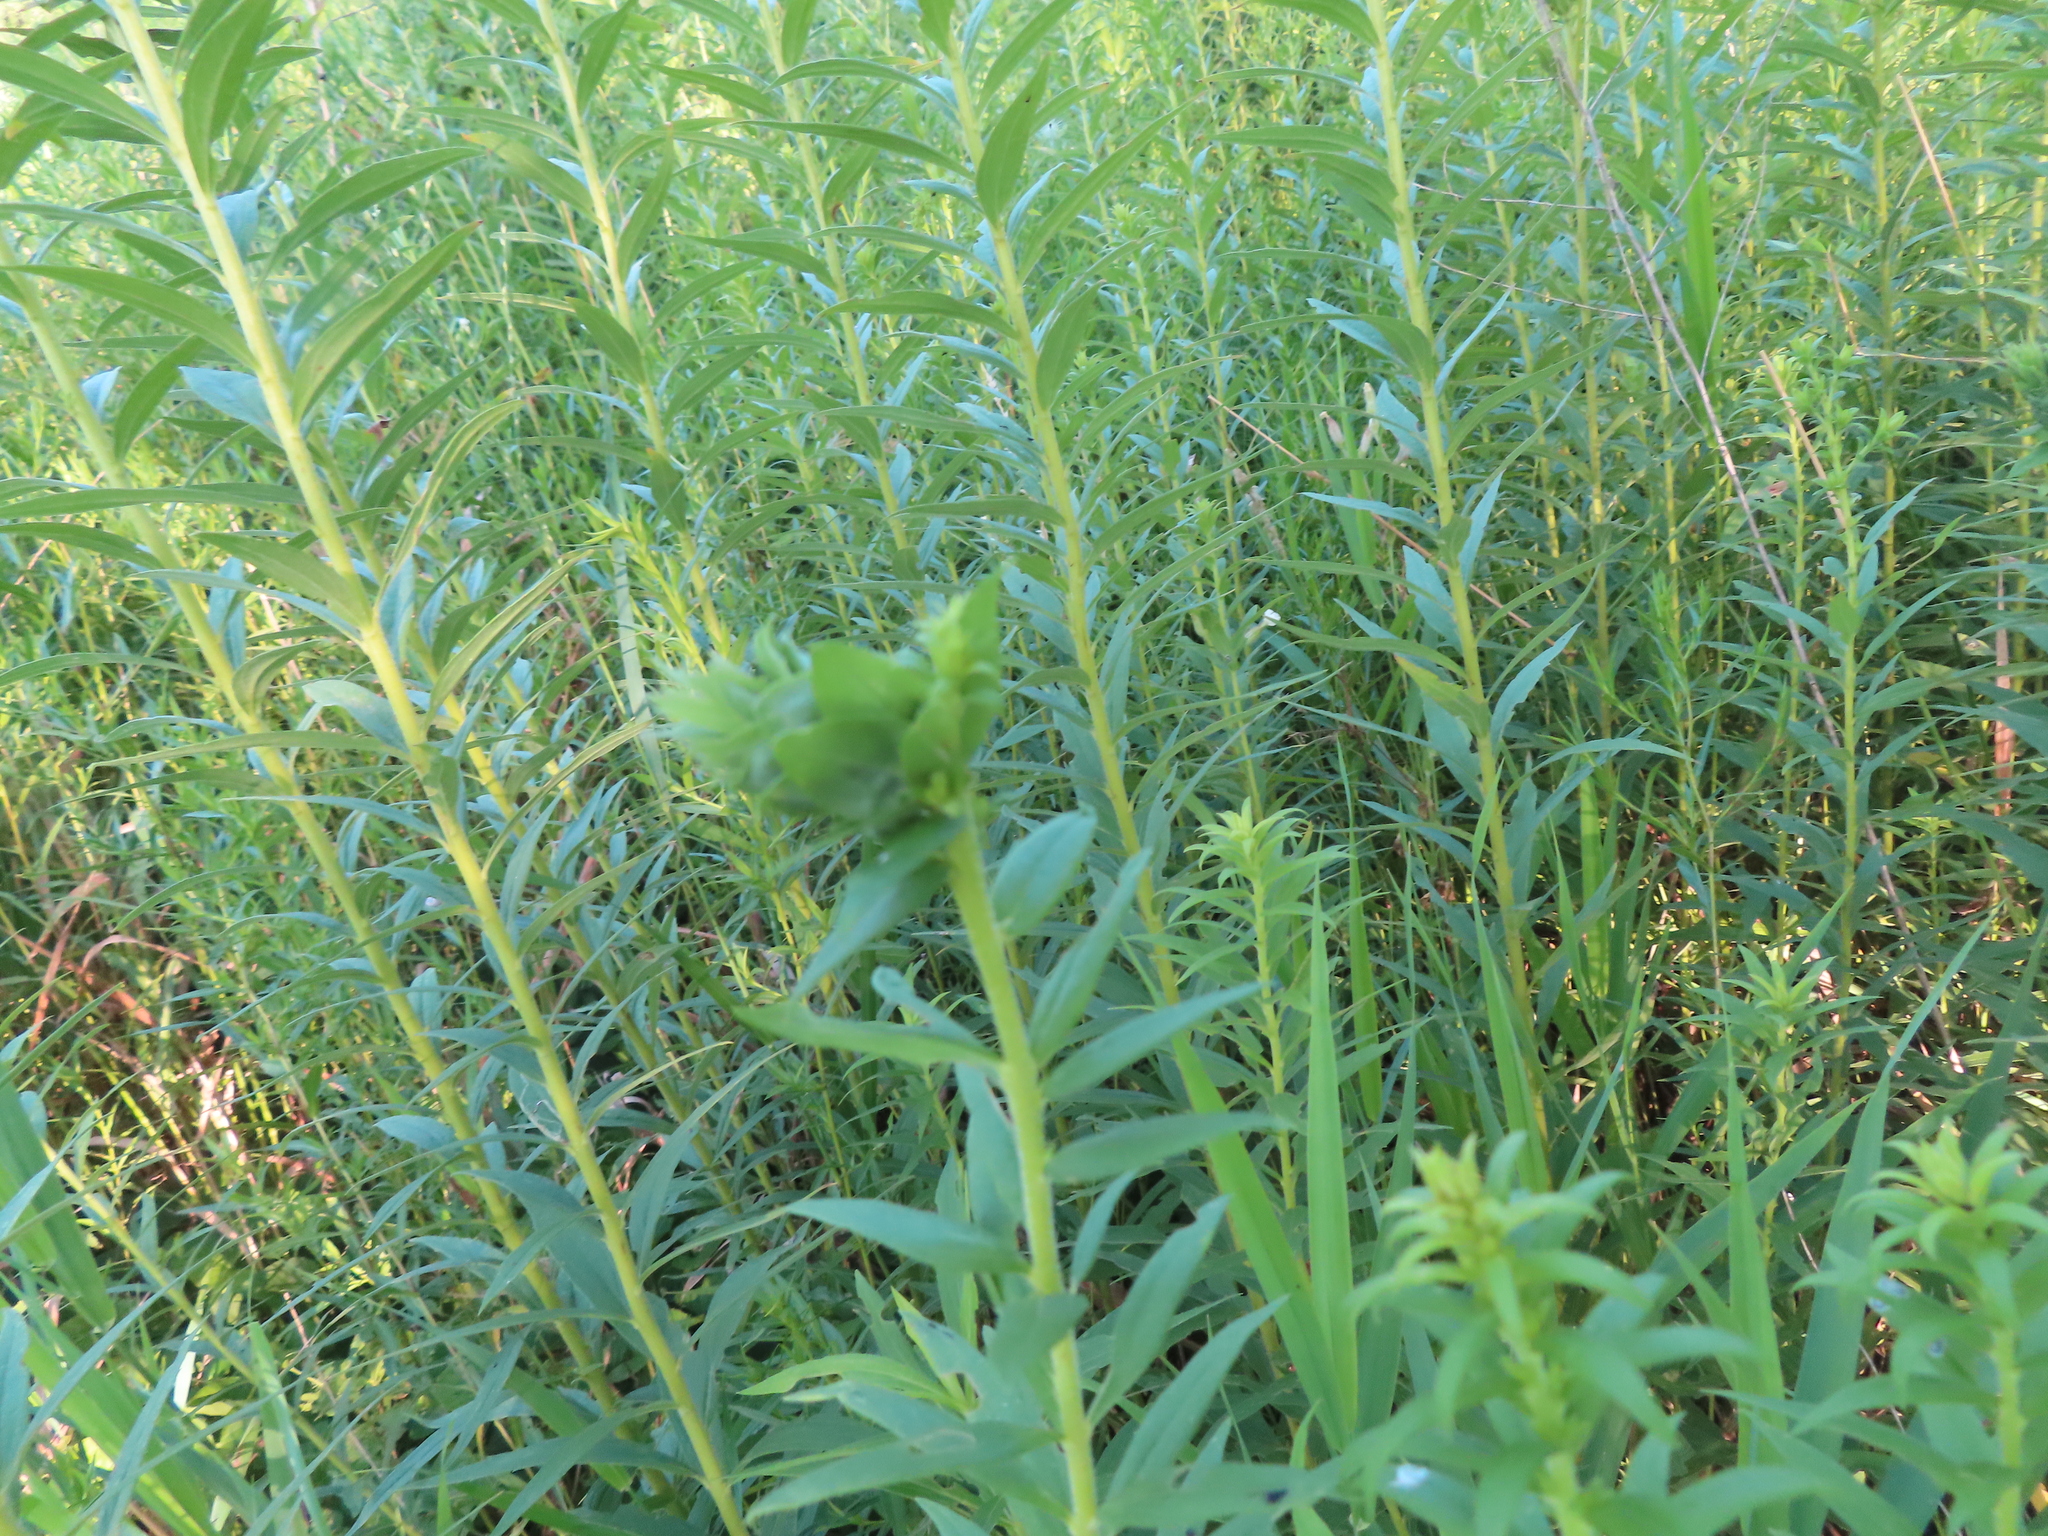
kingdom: Animalia
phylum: Arthropoda
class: Insecta
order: Diptera
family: Cecidomyiidae
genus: Rhopalomyia
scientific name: Rhopalomyia solidaginis
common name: Goldenrod bunch gall midge
